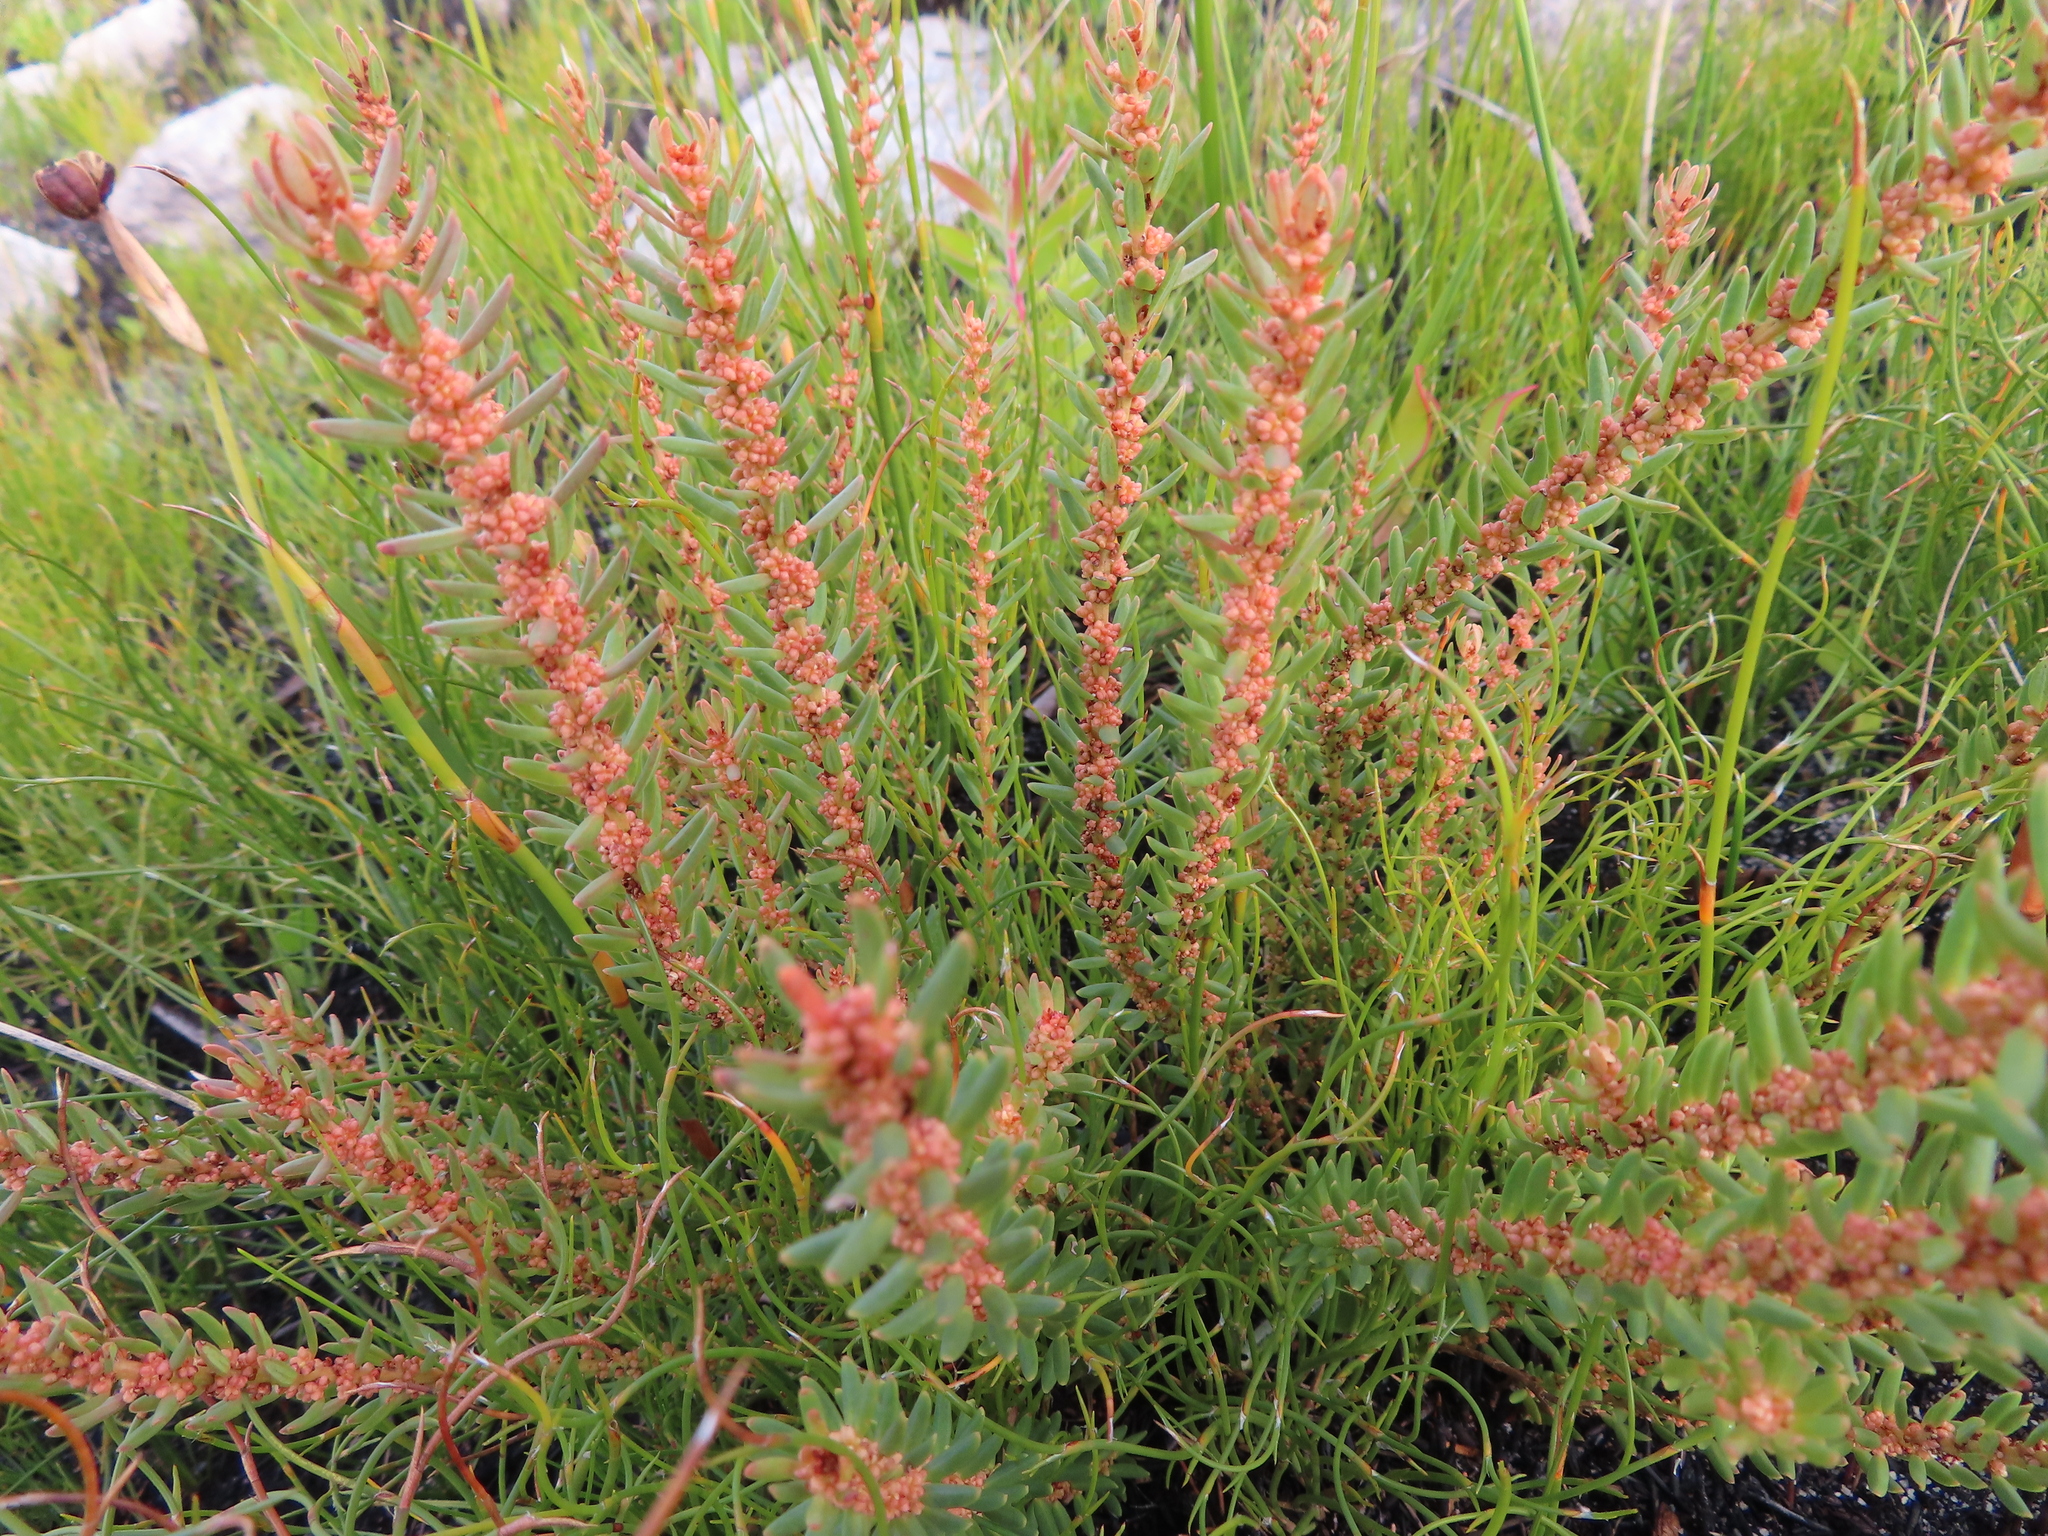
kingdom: Plantae
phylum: Tracheophyta
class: Magnoliopsida
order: Malpighiales
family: Peraceae
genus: Clutia
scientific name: Clutia polygonoides
